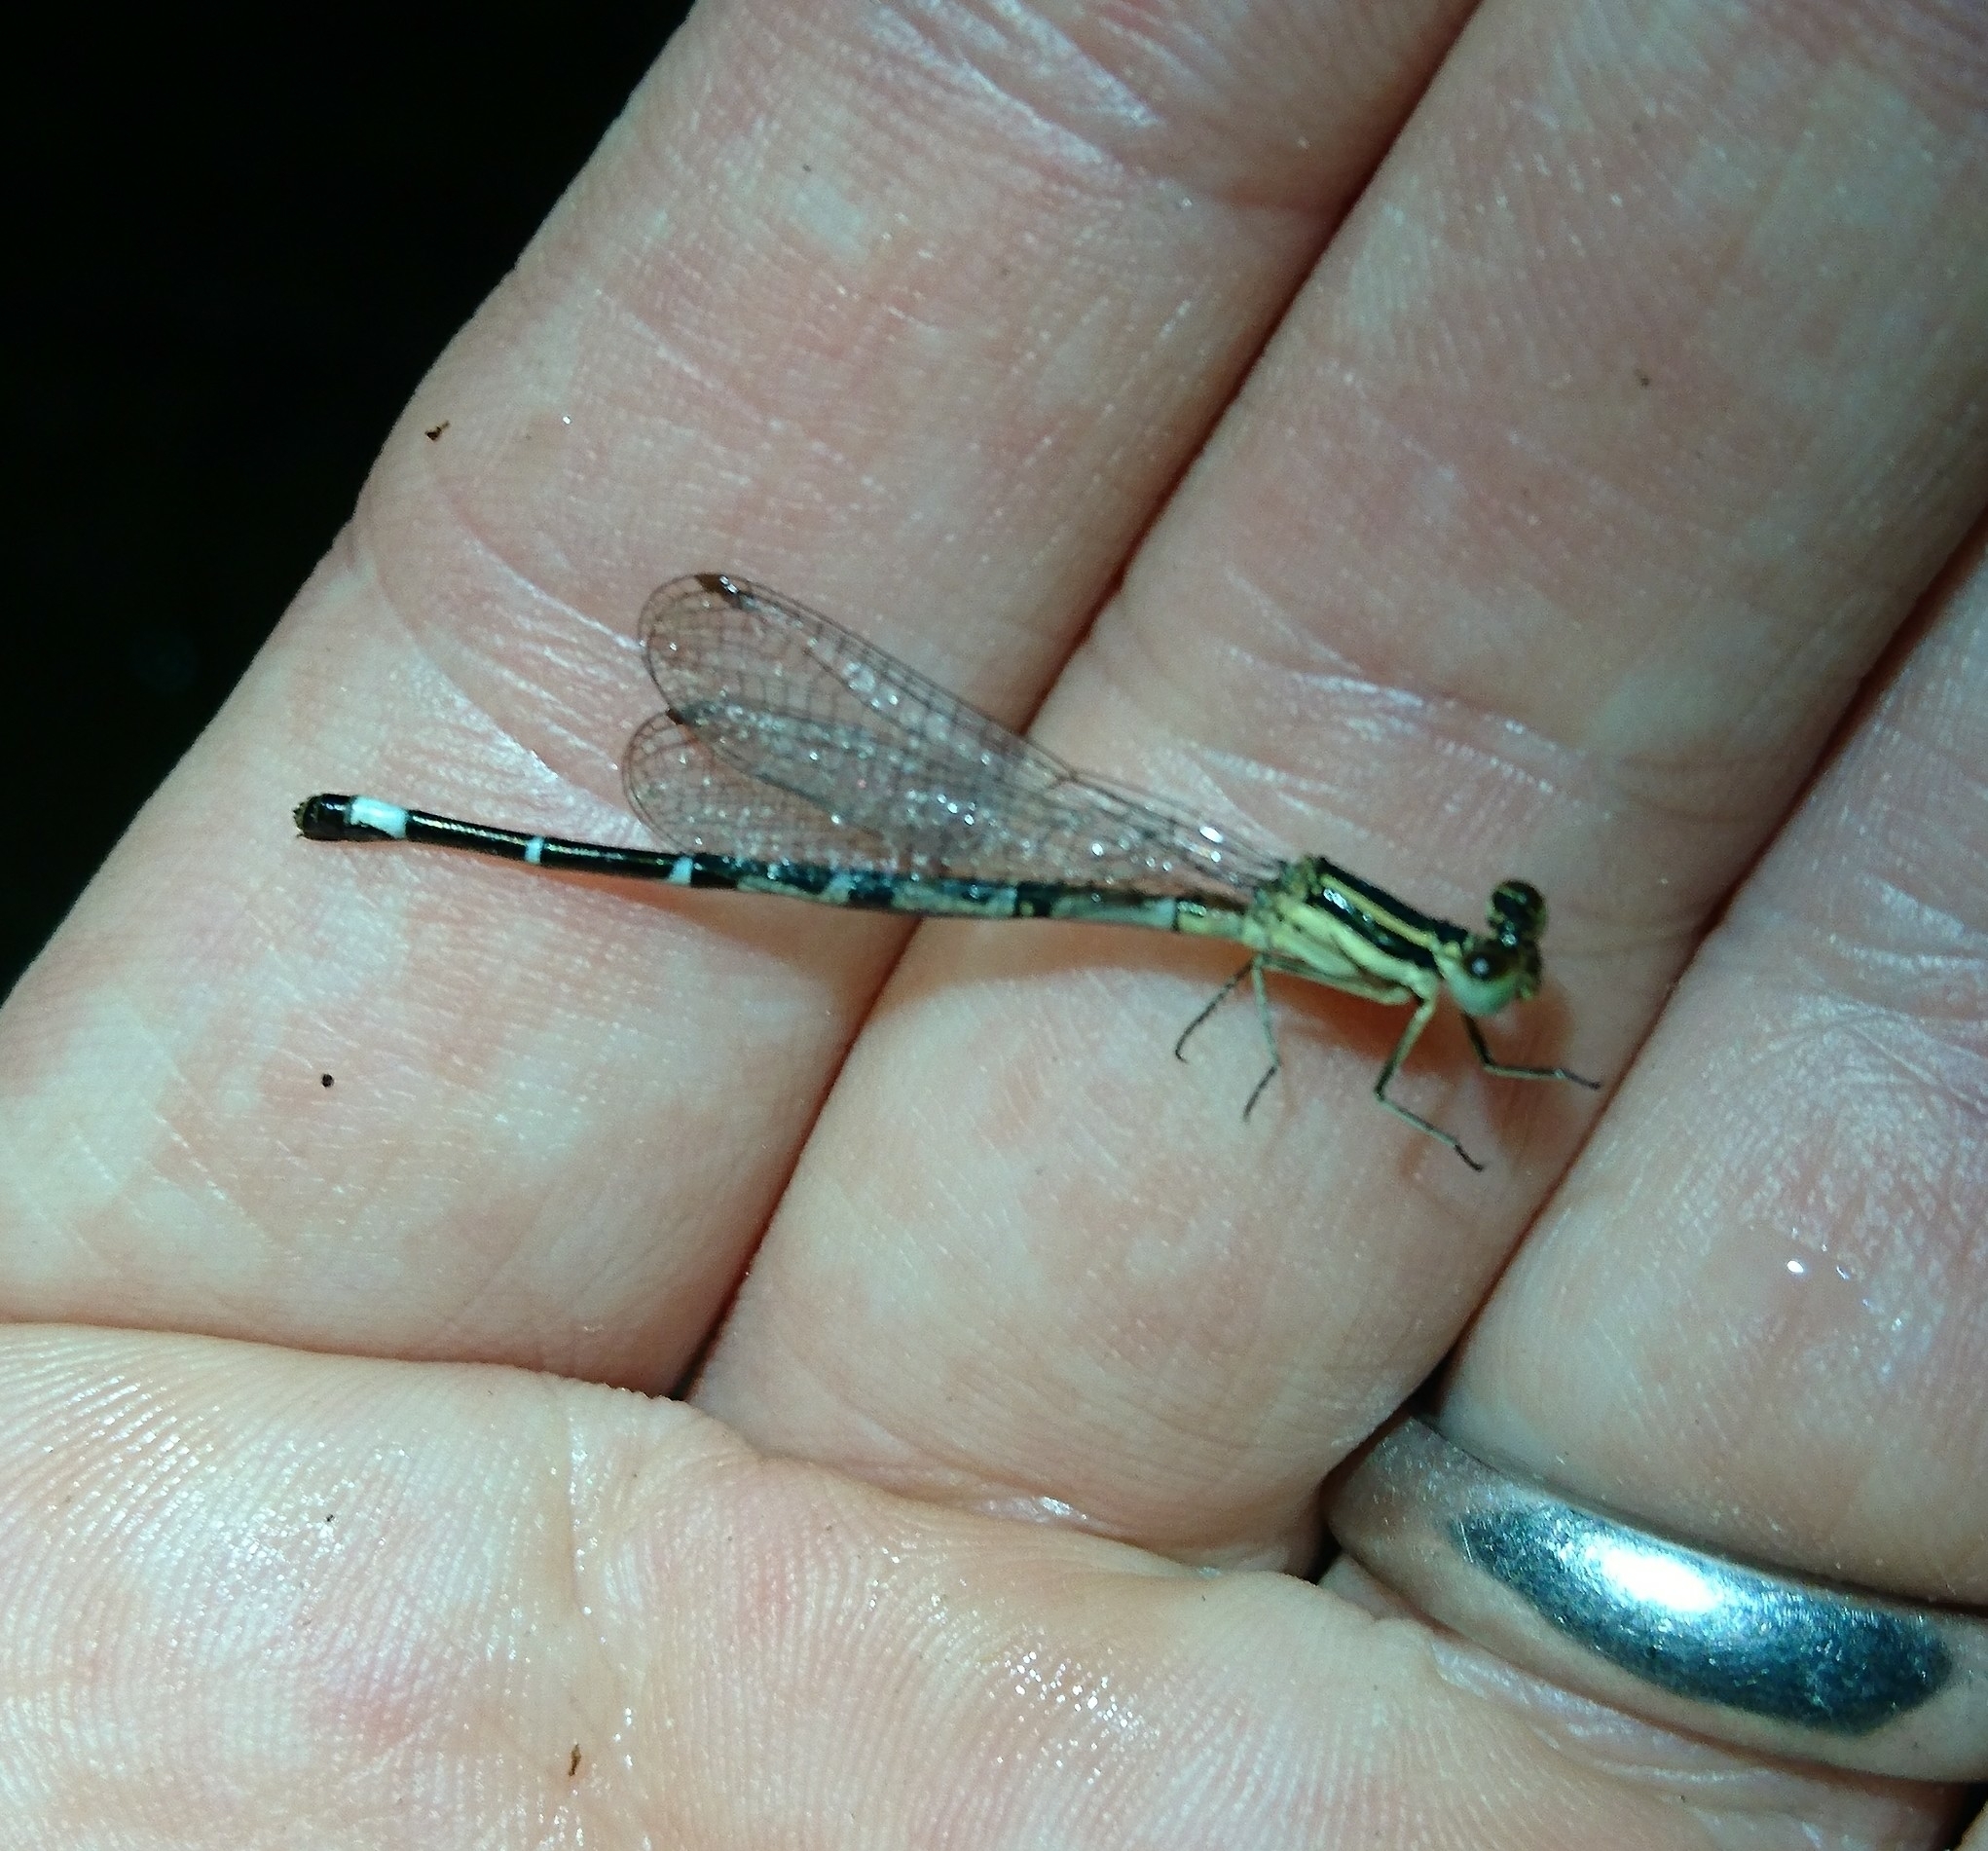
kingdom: Animalia
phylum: Arthropoda
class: Insecta
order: Odonata
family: Coenagrionidae
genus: Argia
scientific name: Argia bipunctulata
